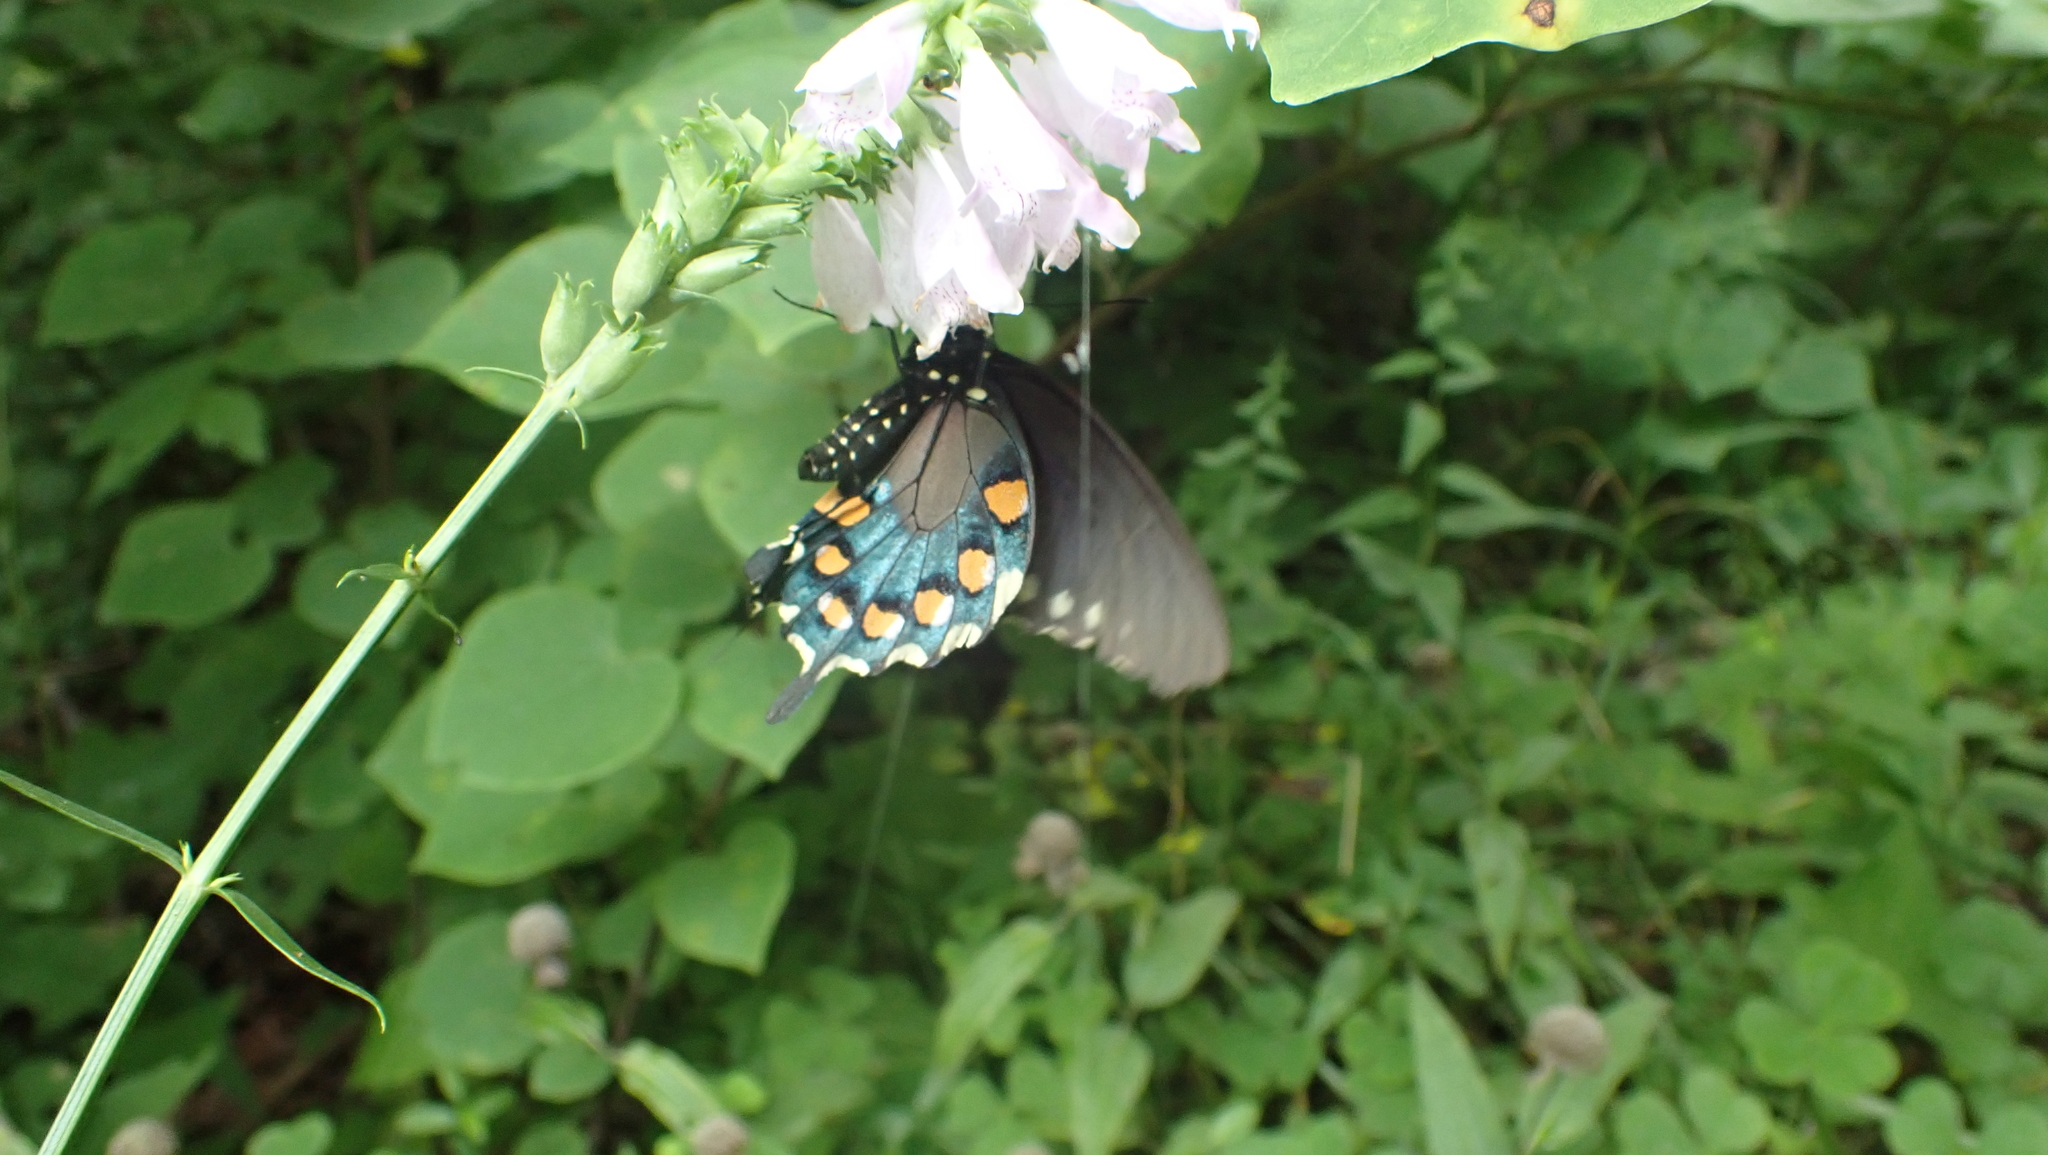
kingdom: Animalia
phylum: Arthropoda
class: Insecta
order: Lepidoptera
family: Papilionidae
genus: Battus
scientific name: Battus philenor
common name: Pipevine swallowtail
